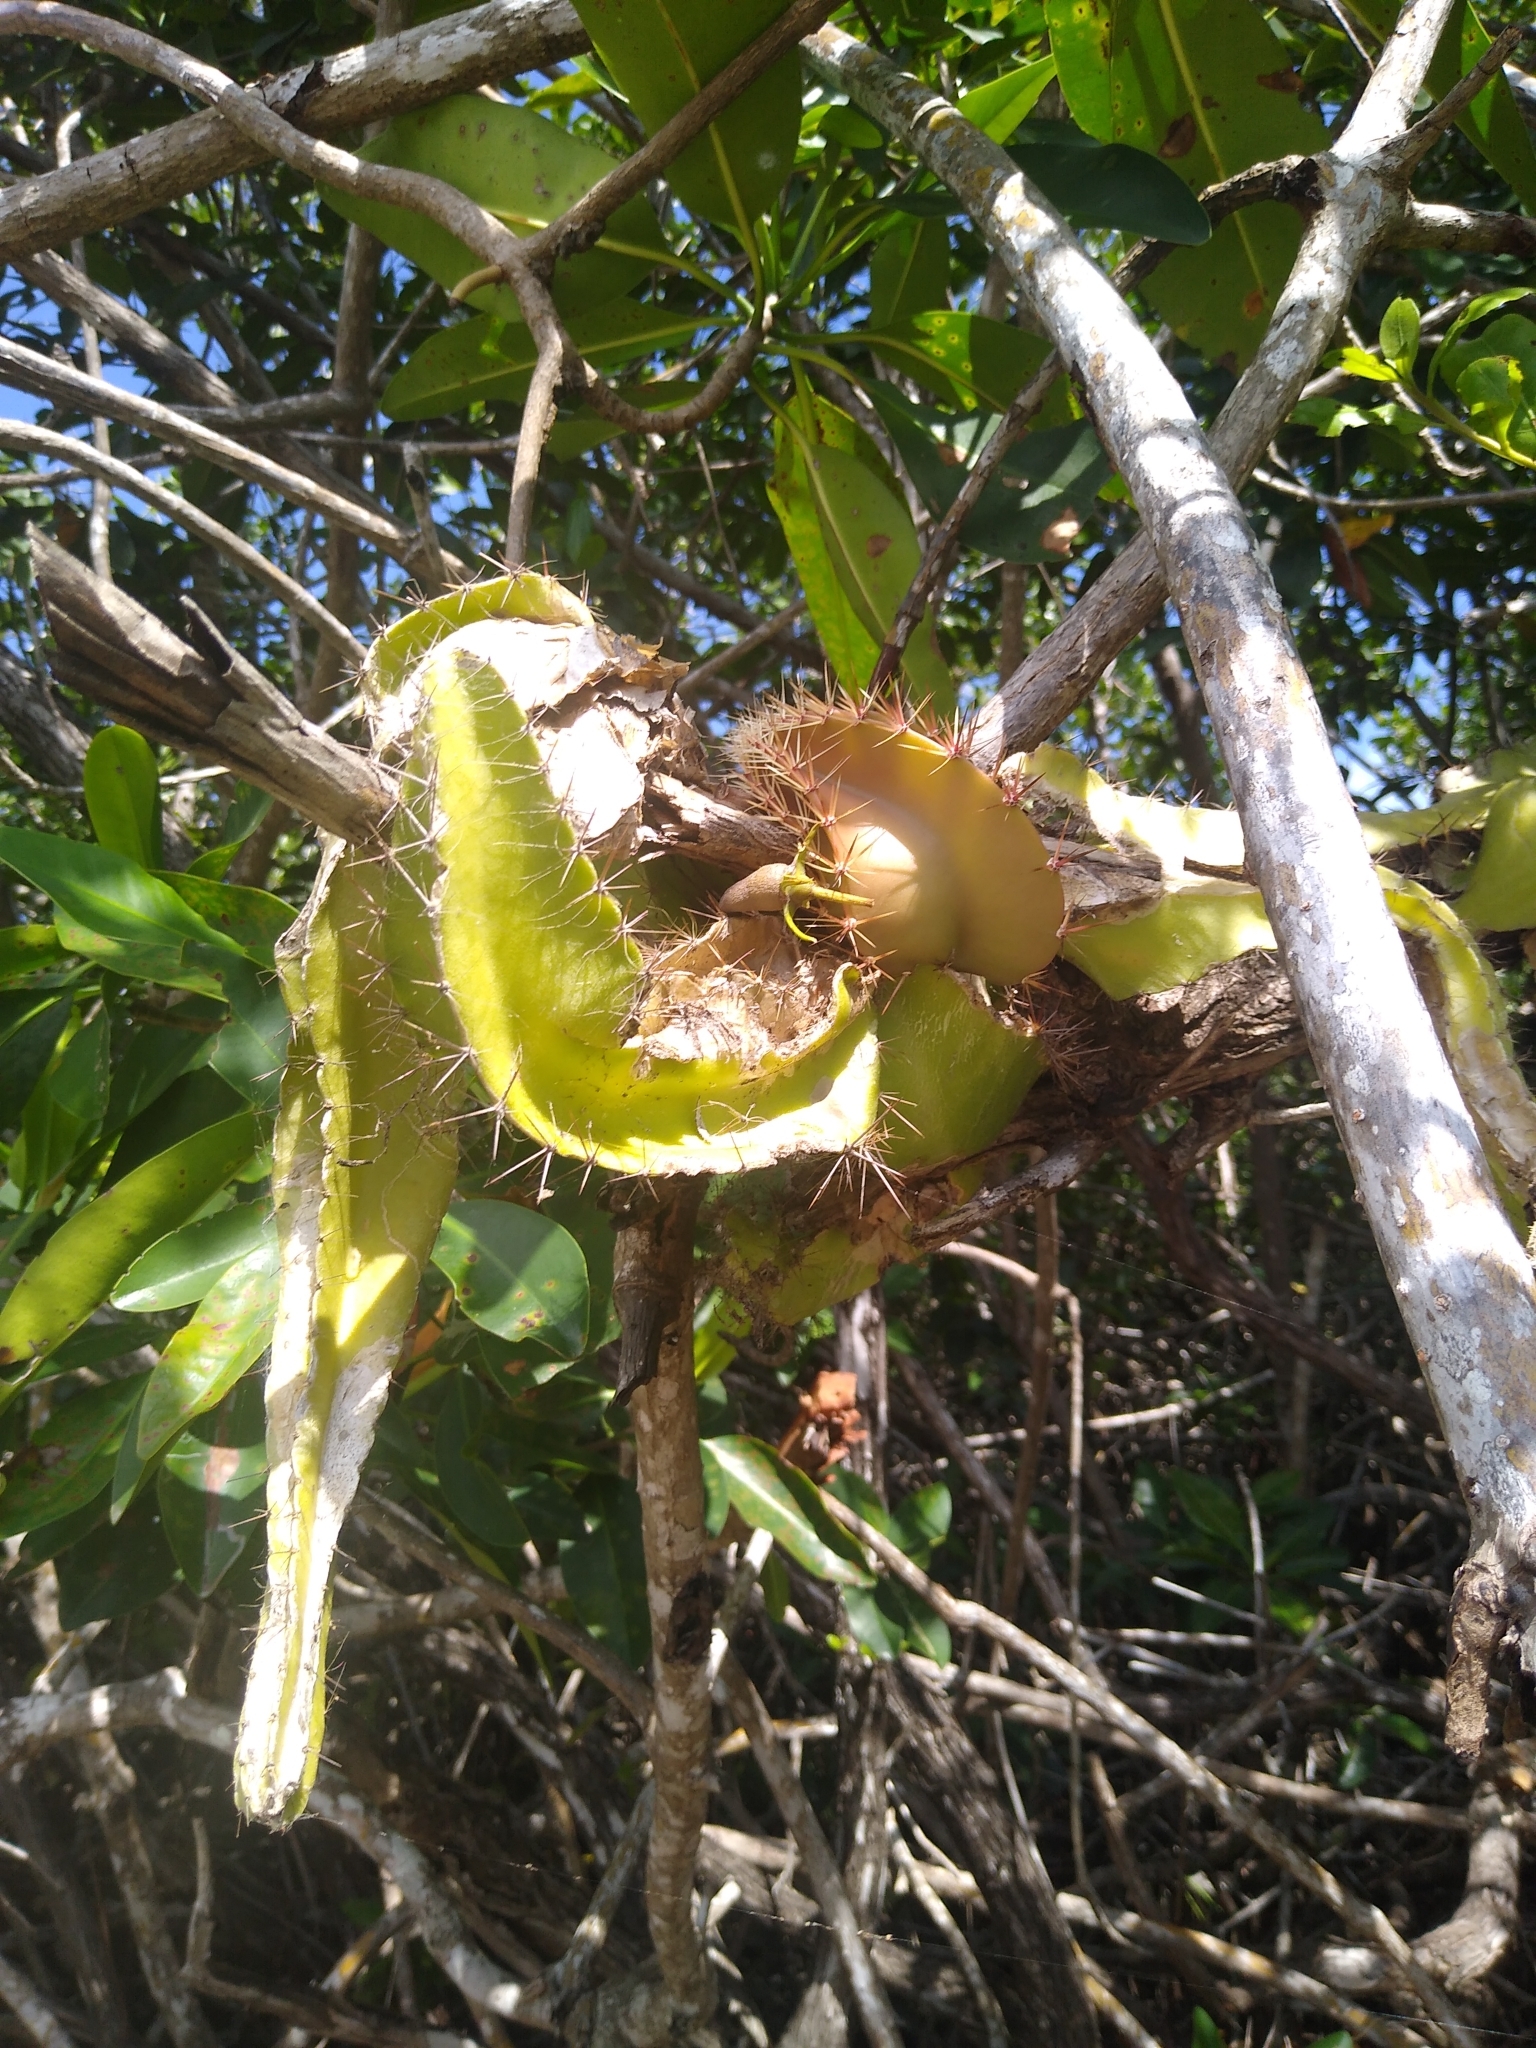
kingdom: Plantae
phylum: Tracheophyta
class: Magnoliopsida
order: Caryophyllales
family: Cactaceae
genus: Deamia
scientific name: Deamia testudo
